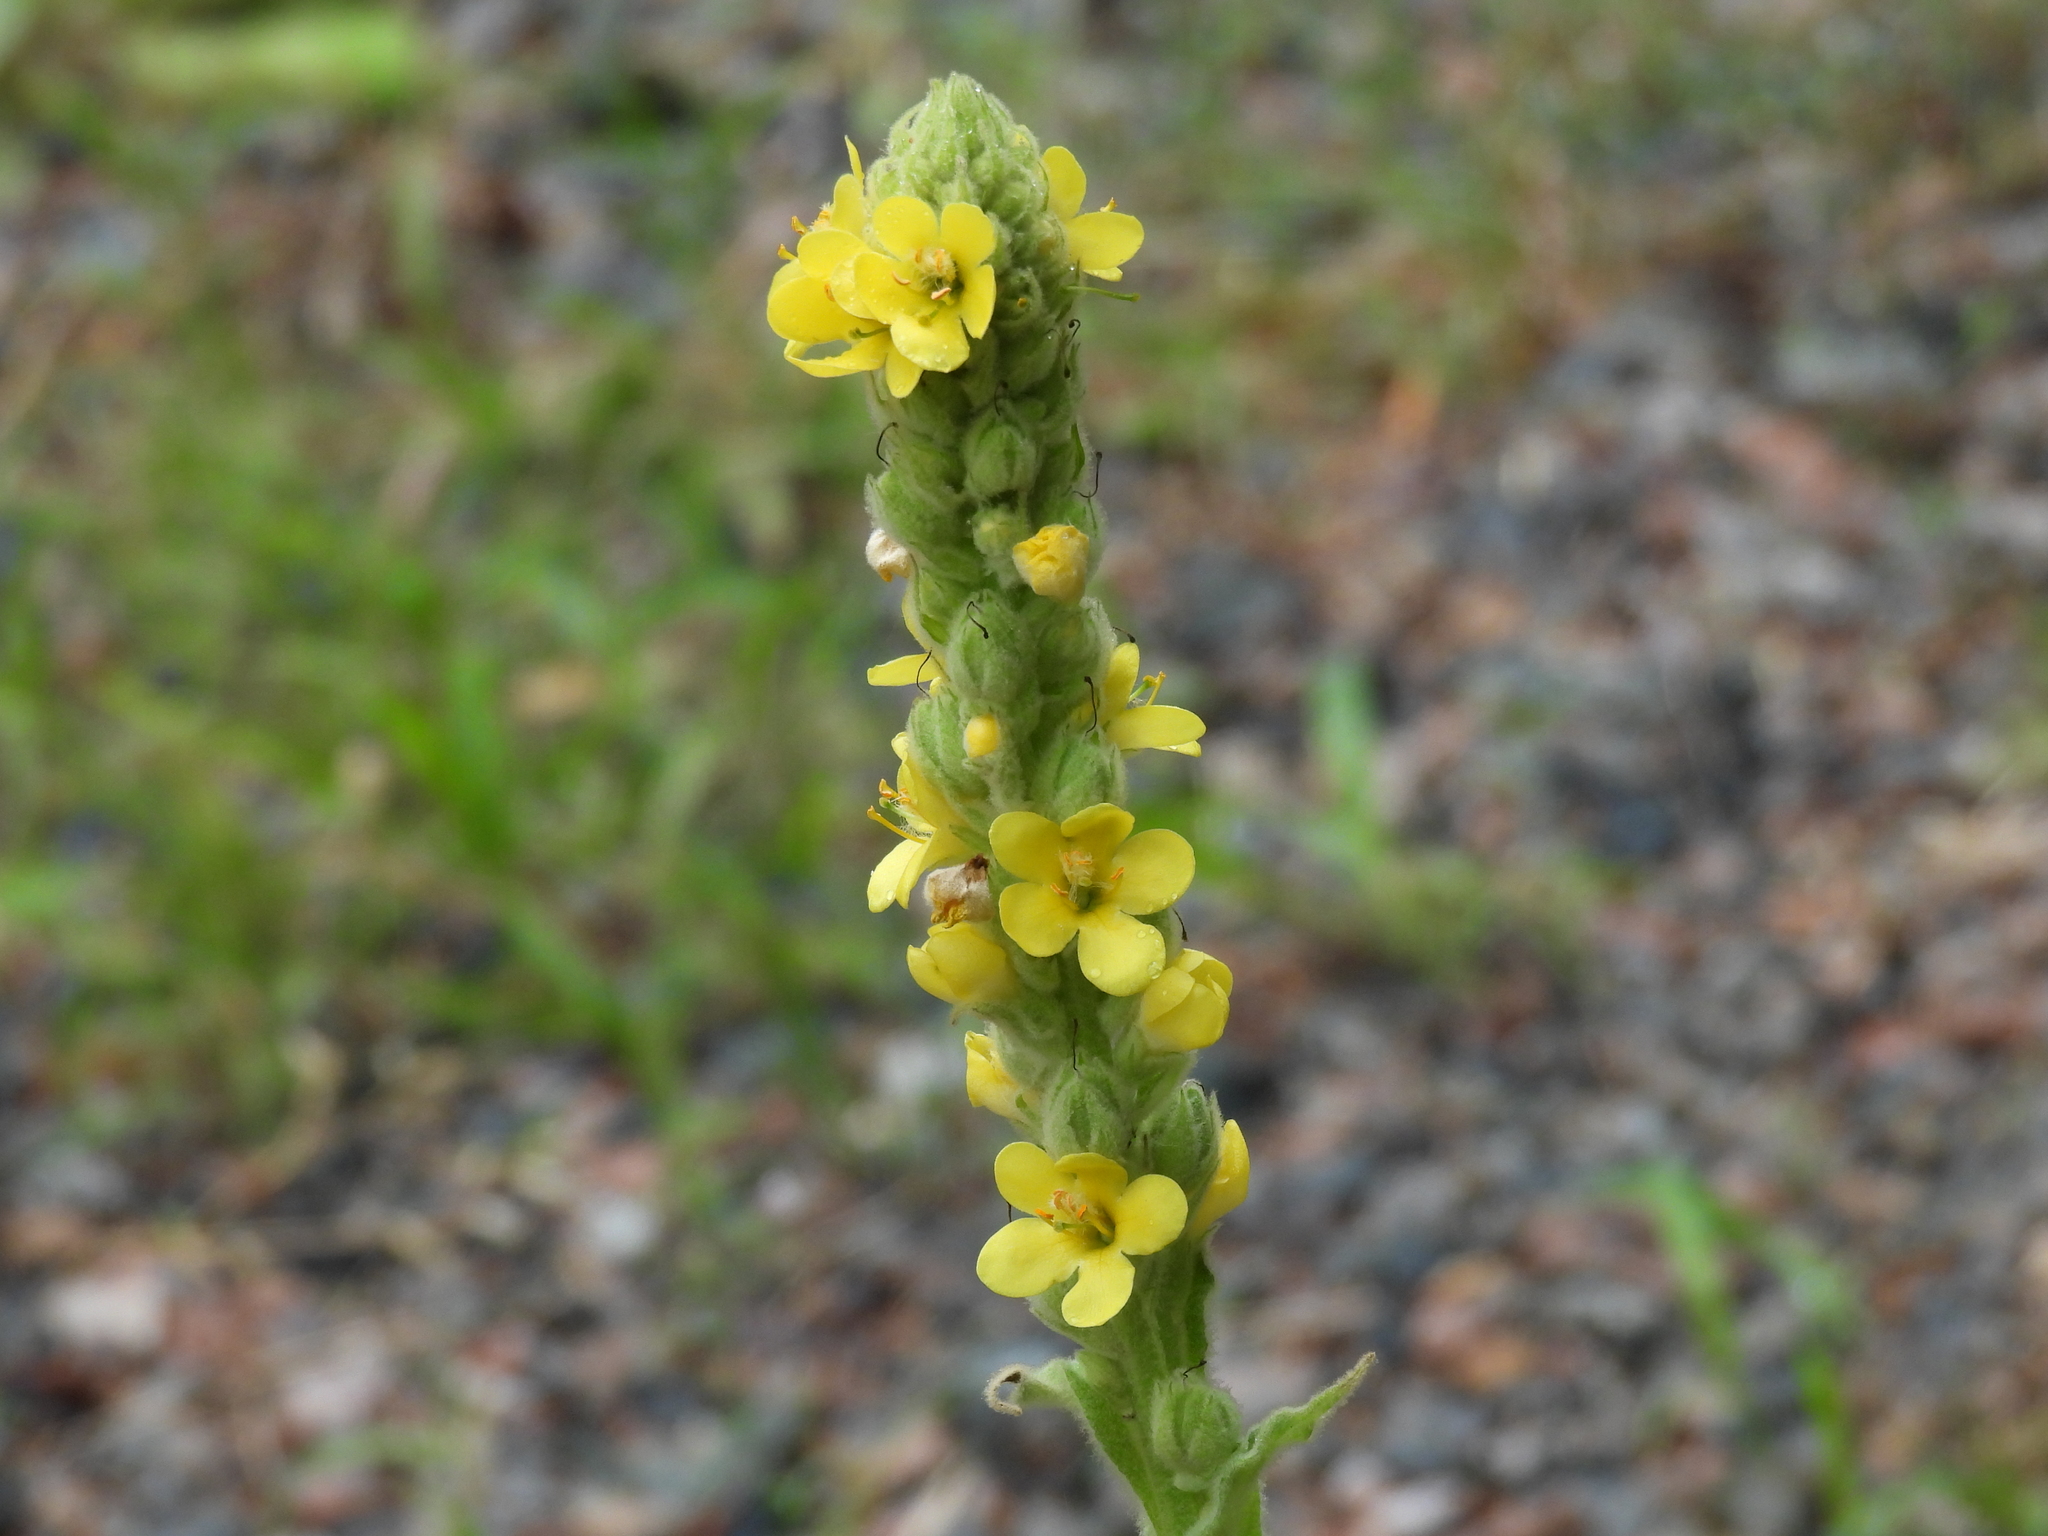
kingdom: Plantae
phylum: Tracheophyta
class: Magnoliopsida
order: Lamiales
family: Scrophulariaceae
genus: Verbascum
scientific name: Verbascum thapsus
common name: Common mullein
